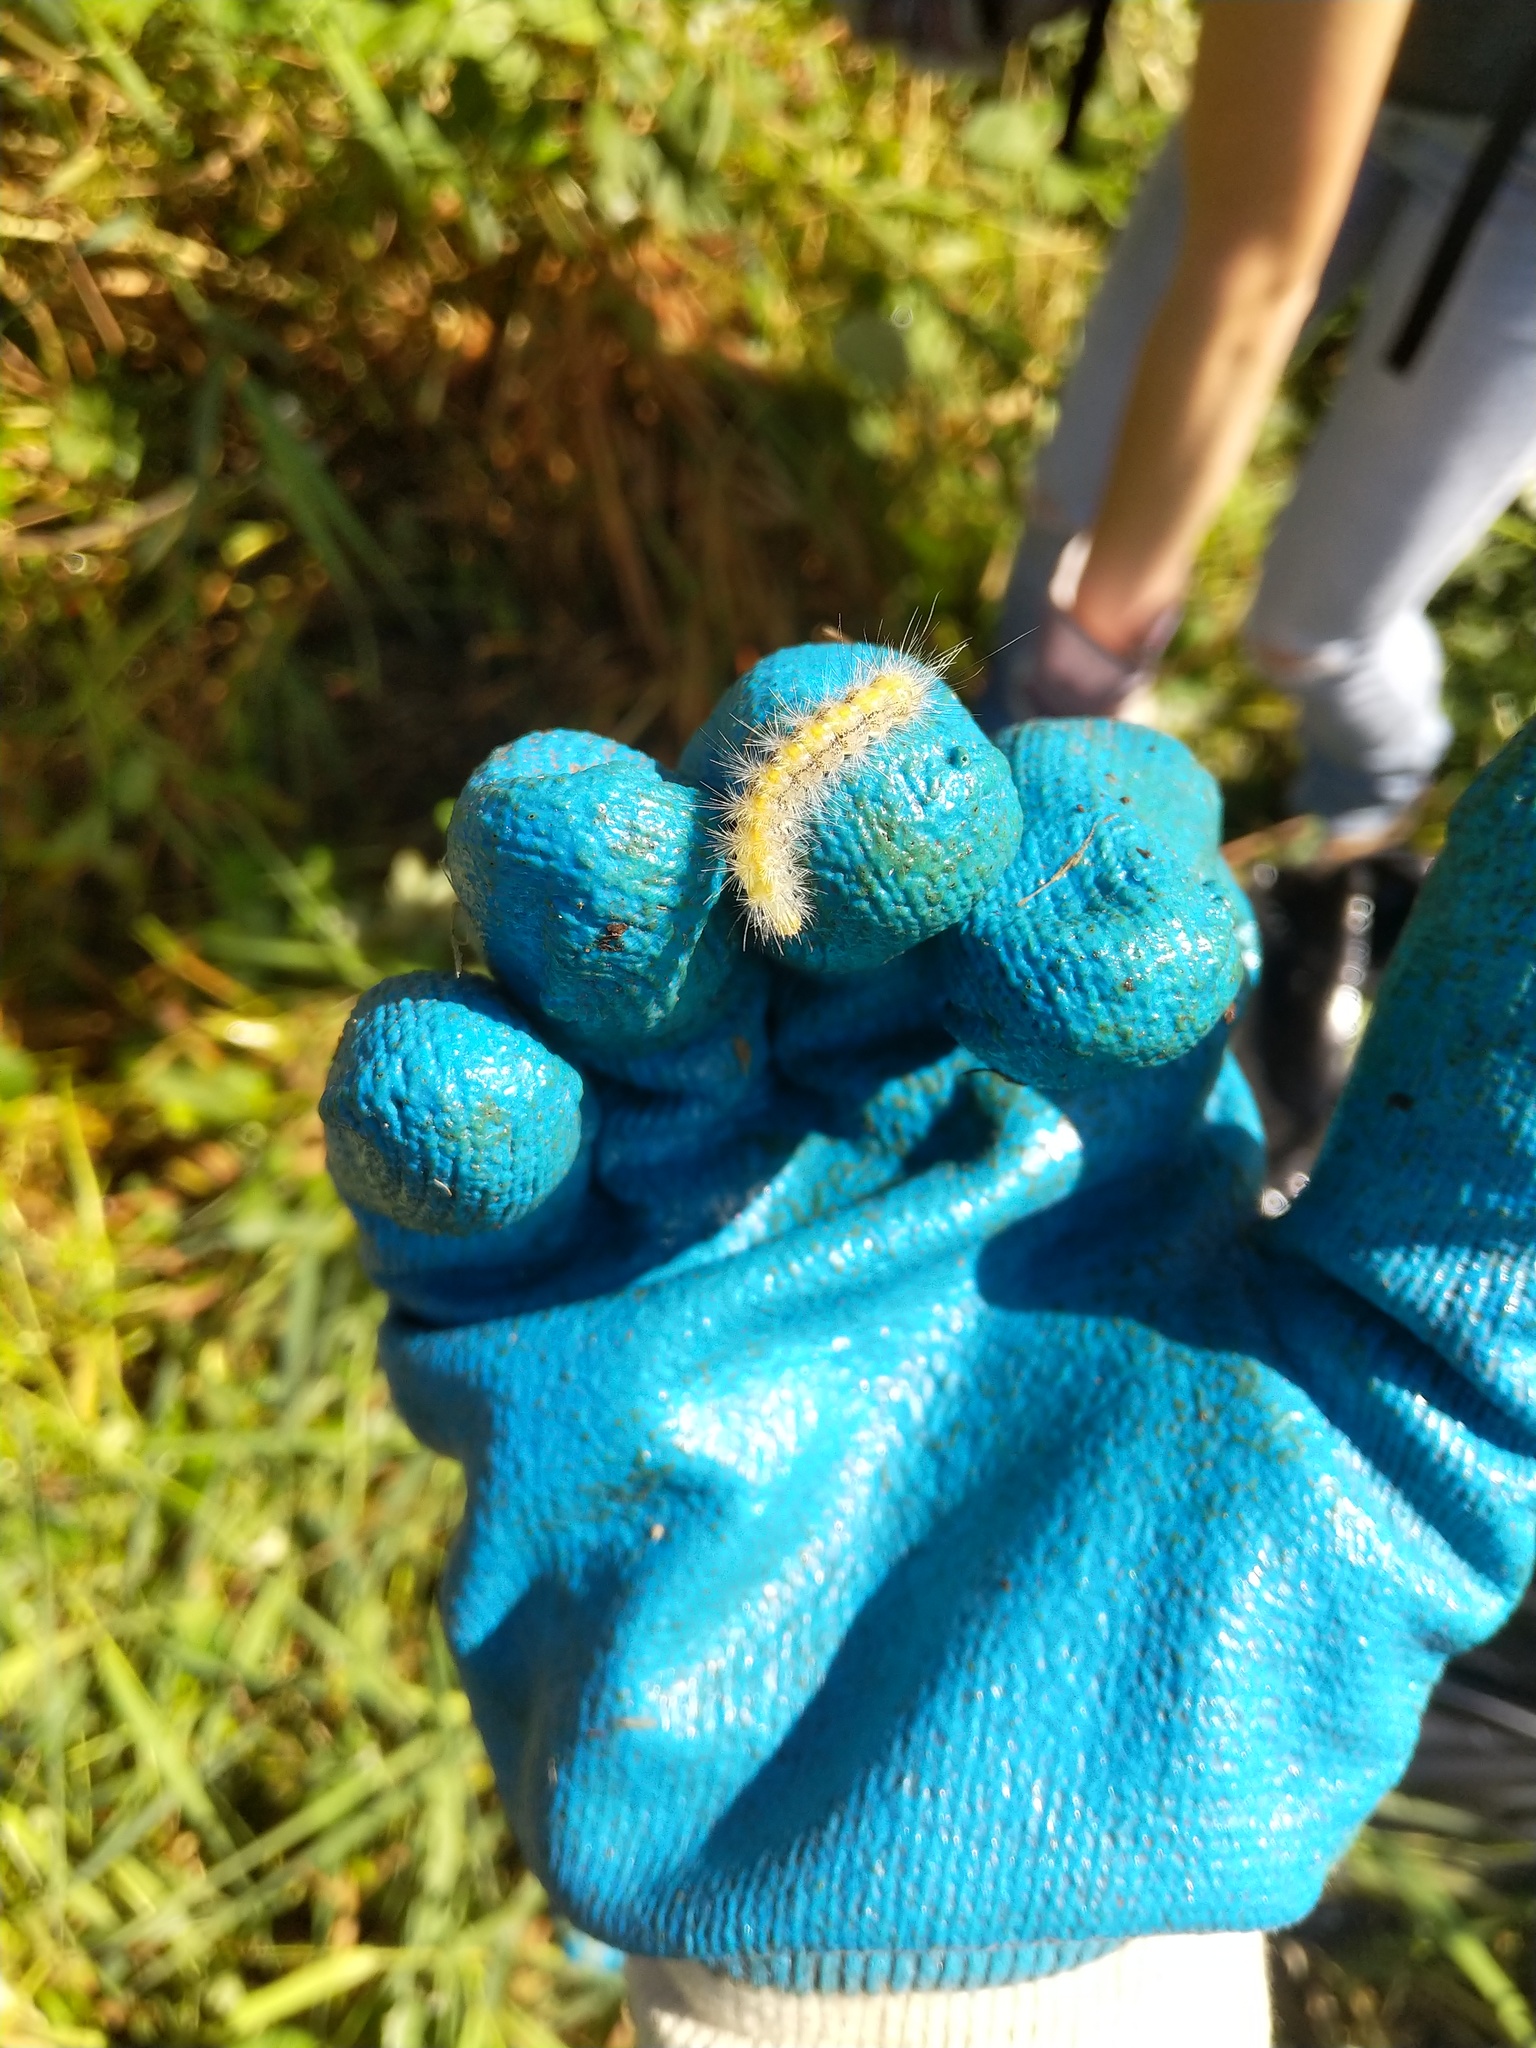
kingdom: Animalia
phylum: Arthropoda
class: Insecta
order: Lepidoptera
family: Erebidae
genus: Spilosoma
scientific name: Spilosoma virginica
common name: Virginia tiger moth
